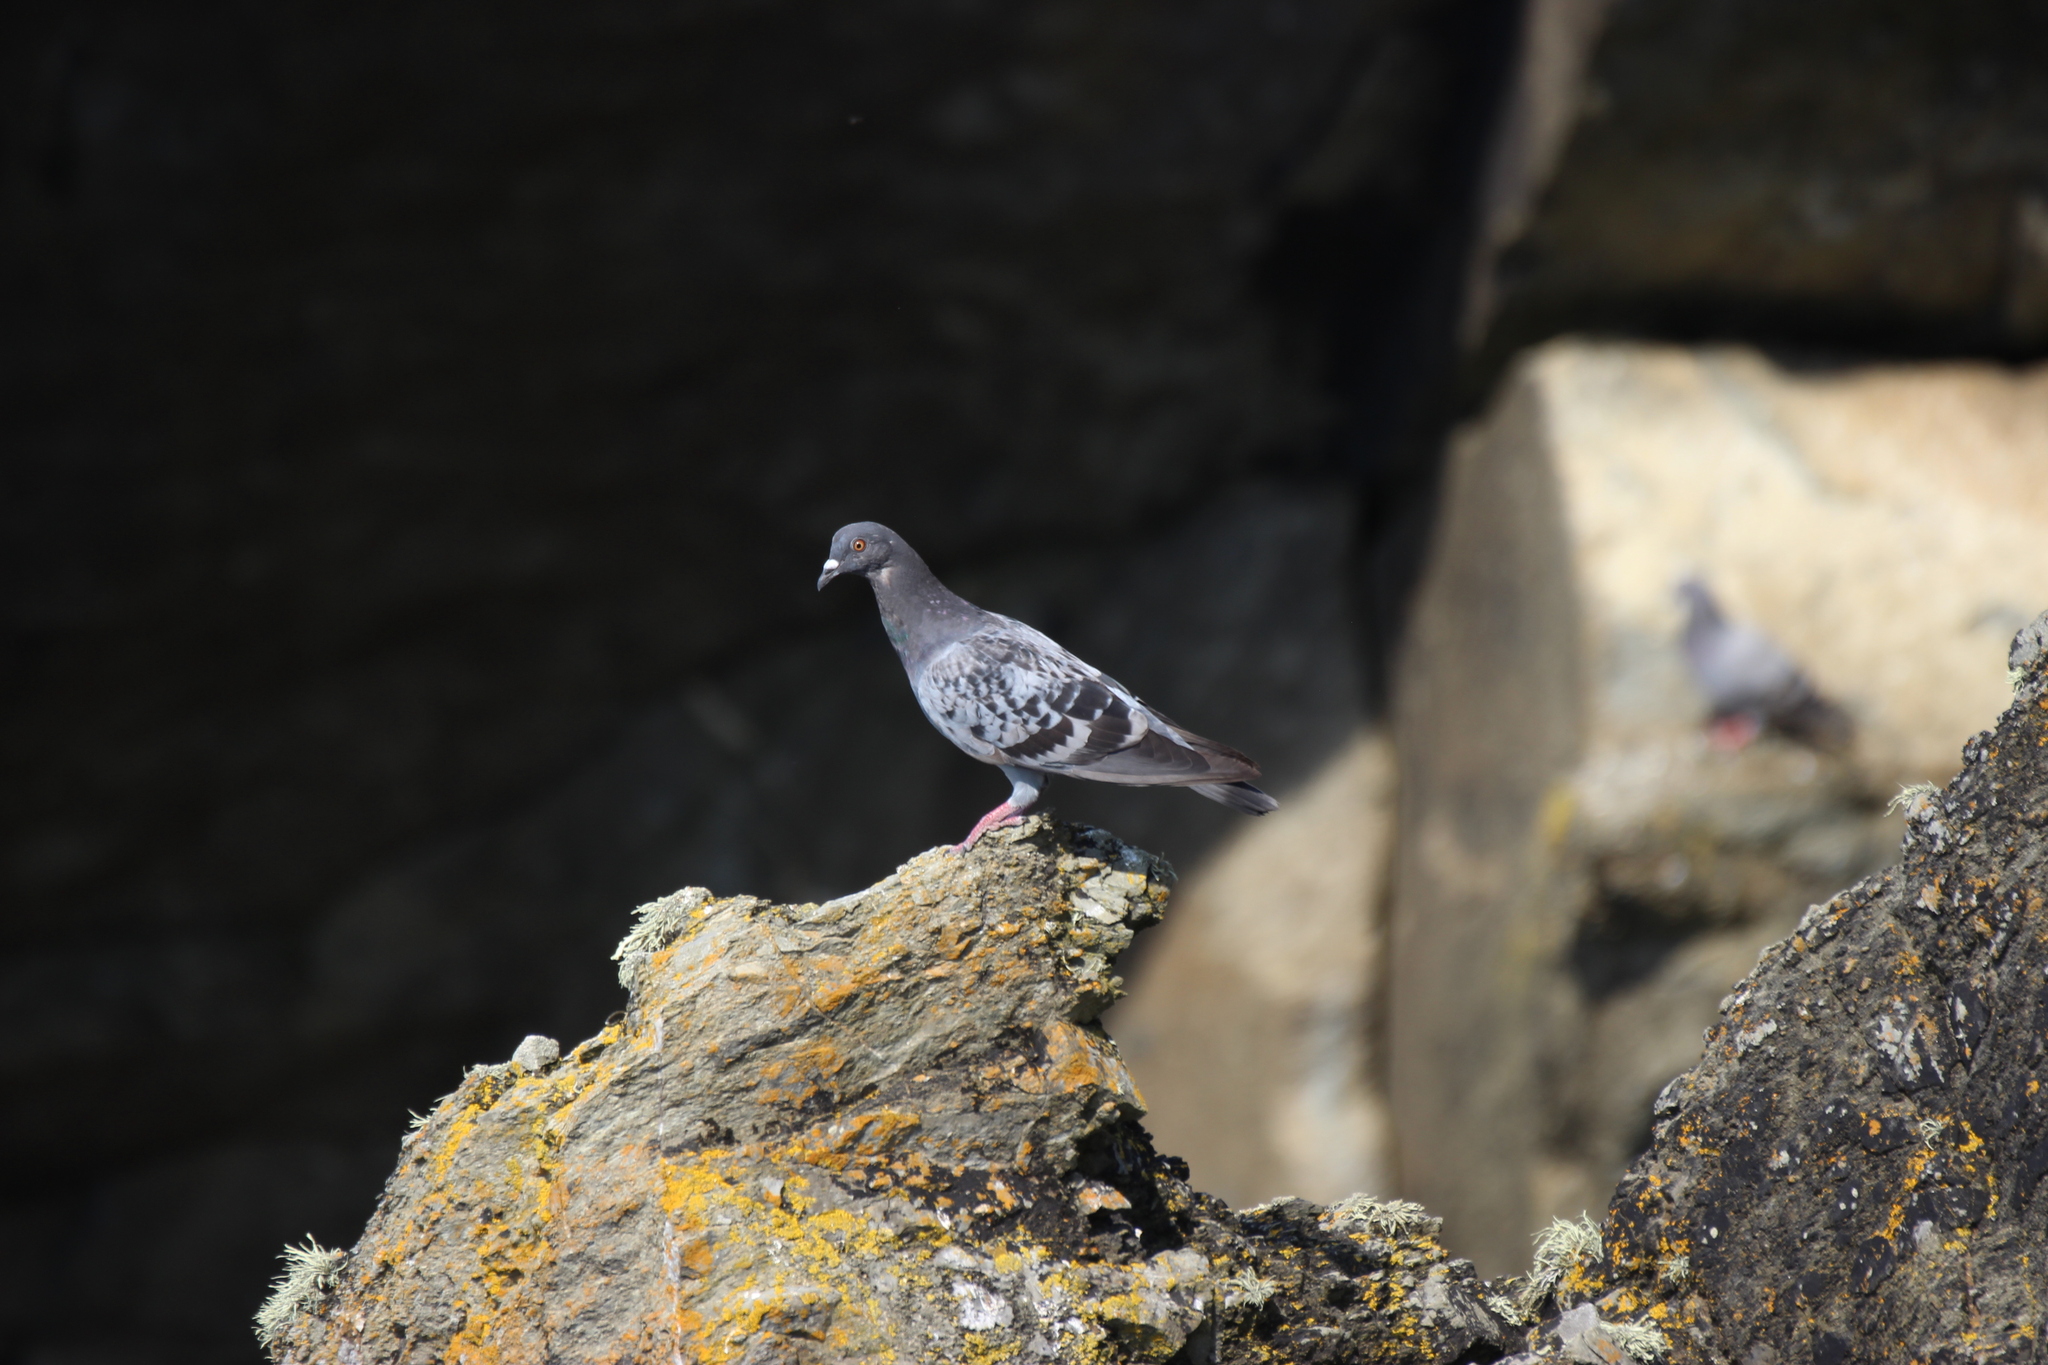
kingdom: Animalia
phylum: Chordata
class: Aves
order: Columbiformes
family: Columbidae
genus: Columba
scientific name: Columba livia
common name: Rock pigeon
